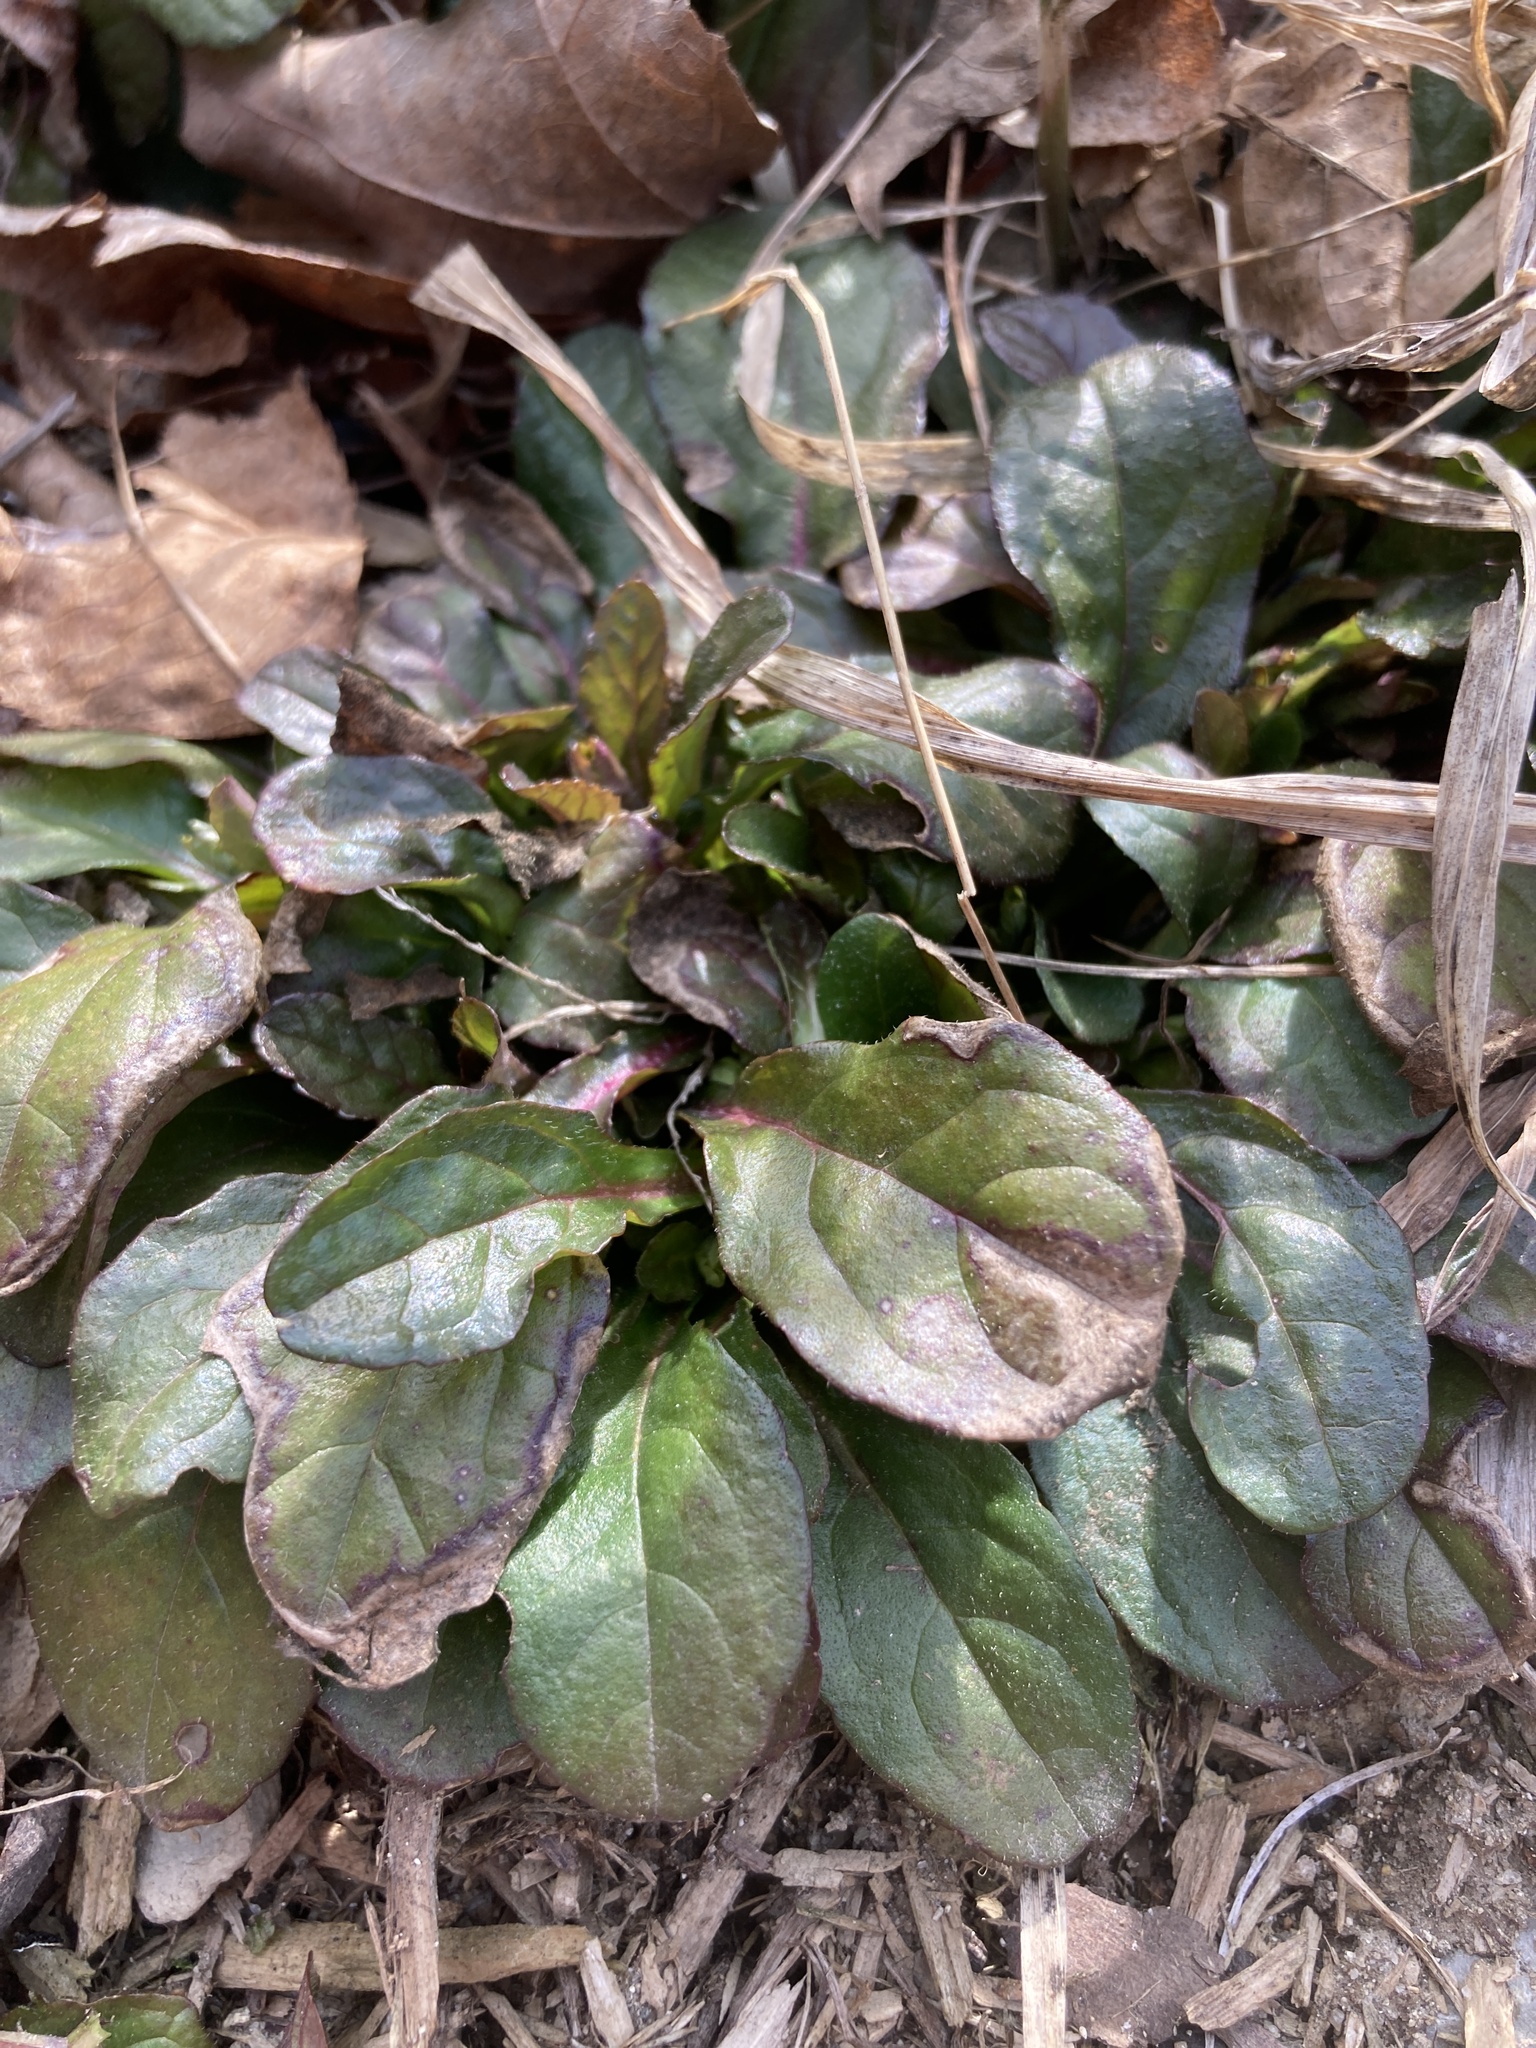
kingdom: Plantae
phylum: Tracheophyta
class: Magnoliopsida
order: Lamiales
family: Lamiaceae
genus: Ajuga
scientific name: Ajuga reptans
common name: Bugle
